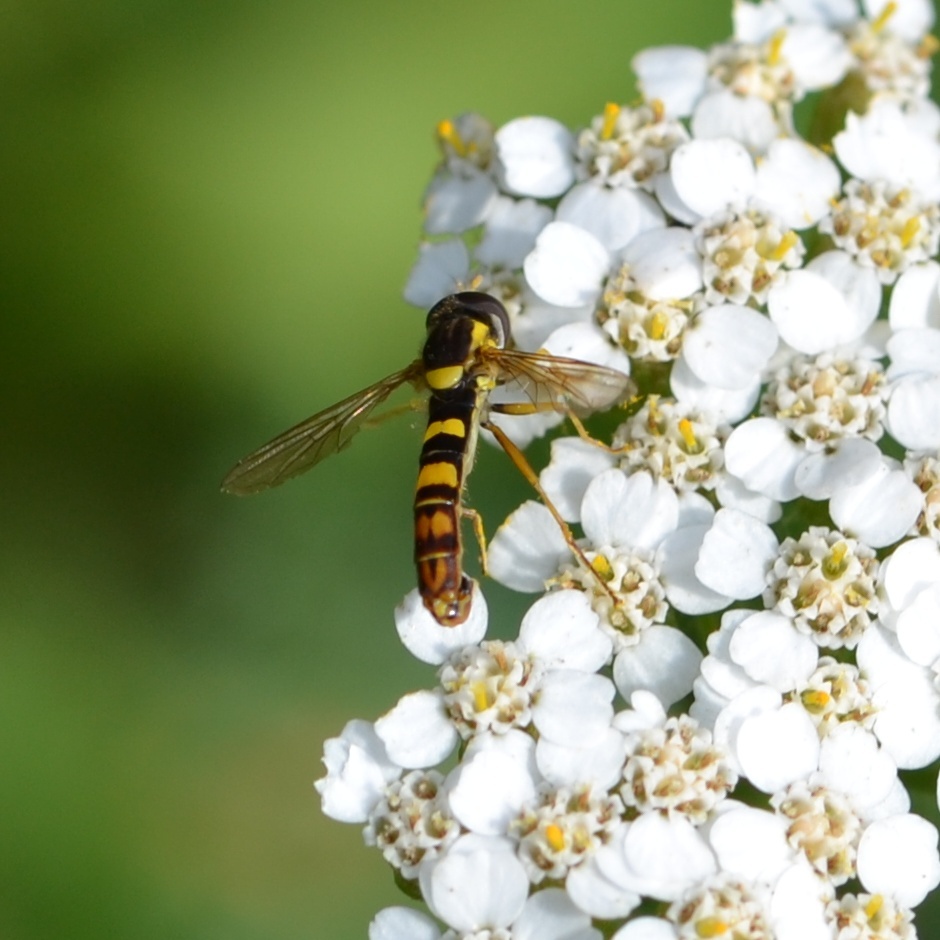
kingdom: Animalia
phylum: Arthropoda
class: Insecta
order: Diptera
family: Syrphidae
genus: Sphaerophoria
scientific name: Sphaerophoria scripta
